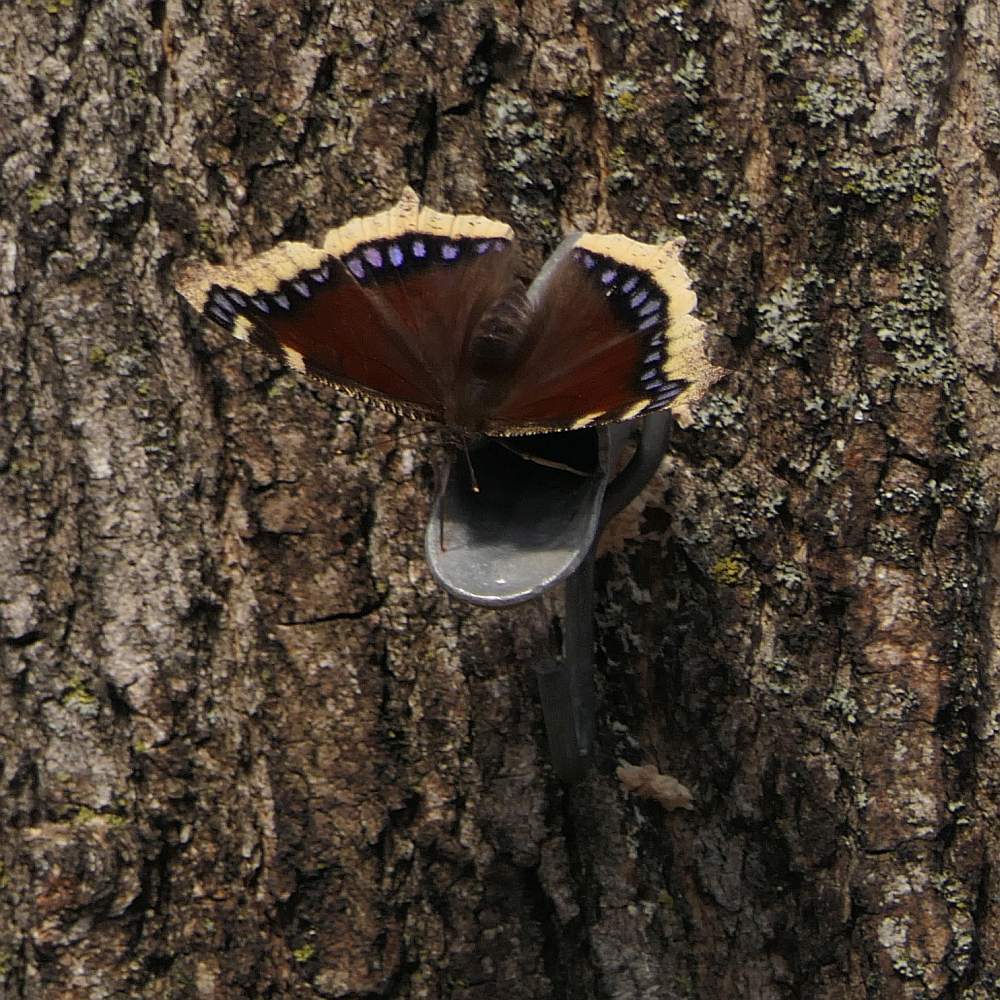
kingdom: Animalia
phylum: Arthropoda
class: Insecta
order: Lepidoptera
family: Nymphalidae
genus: Nymphalis
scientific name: Nymphalis antiopa
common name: Camberwell beauty
